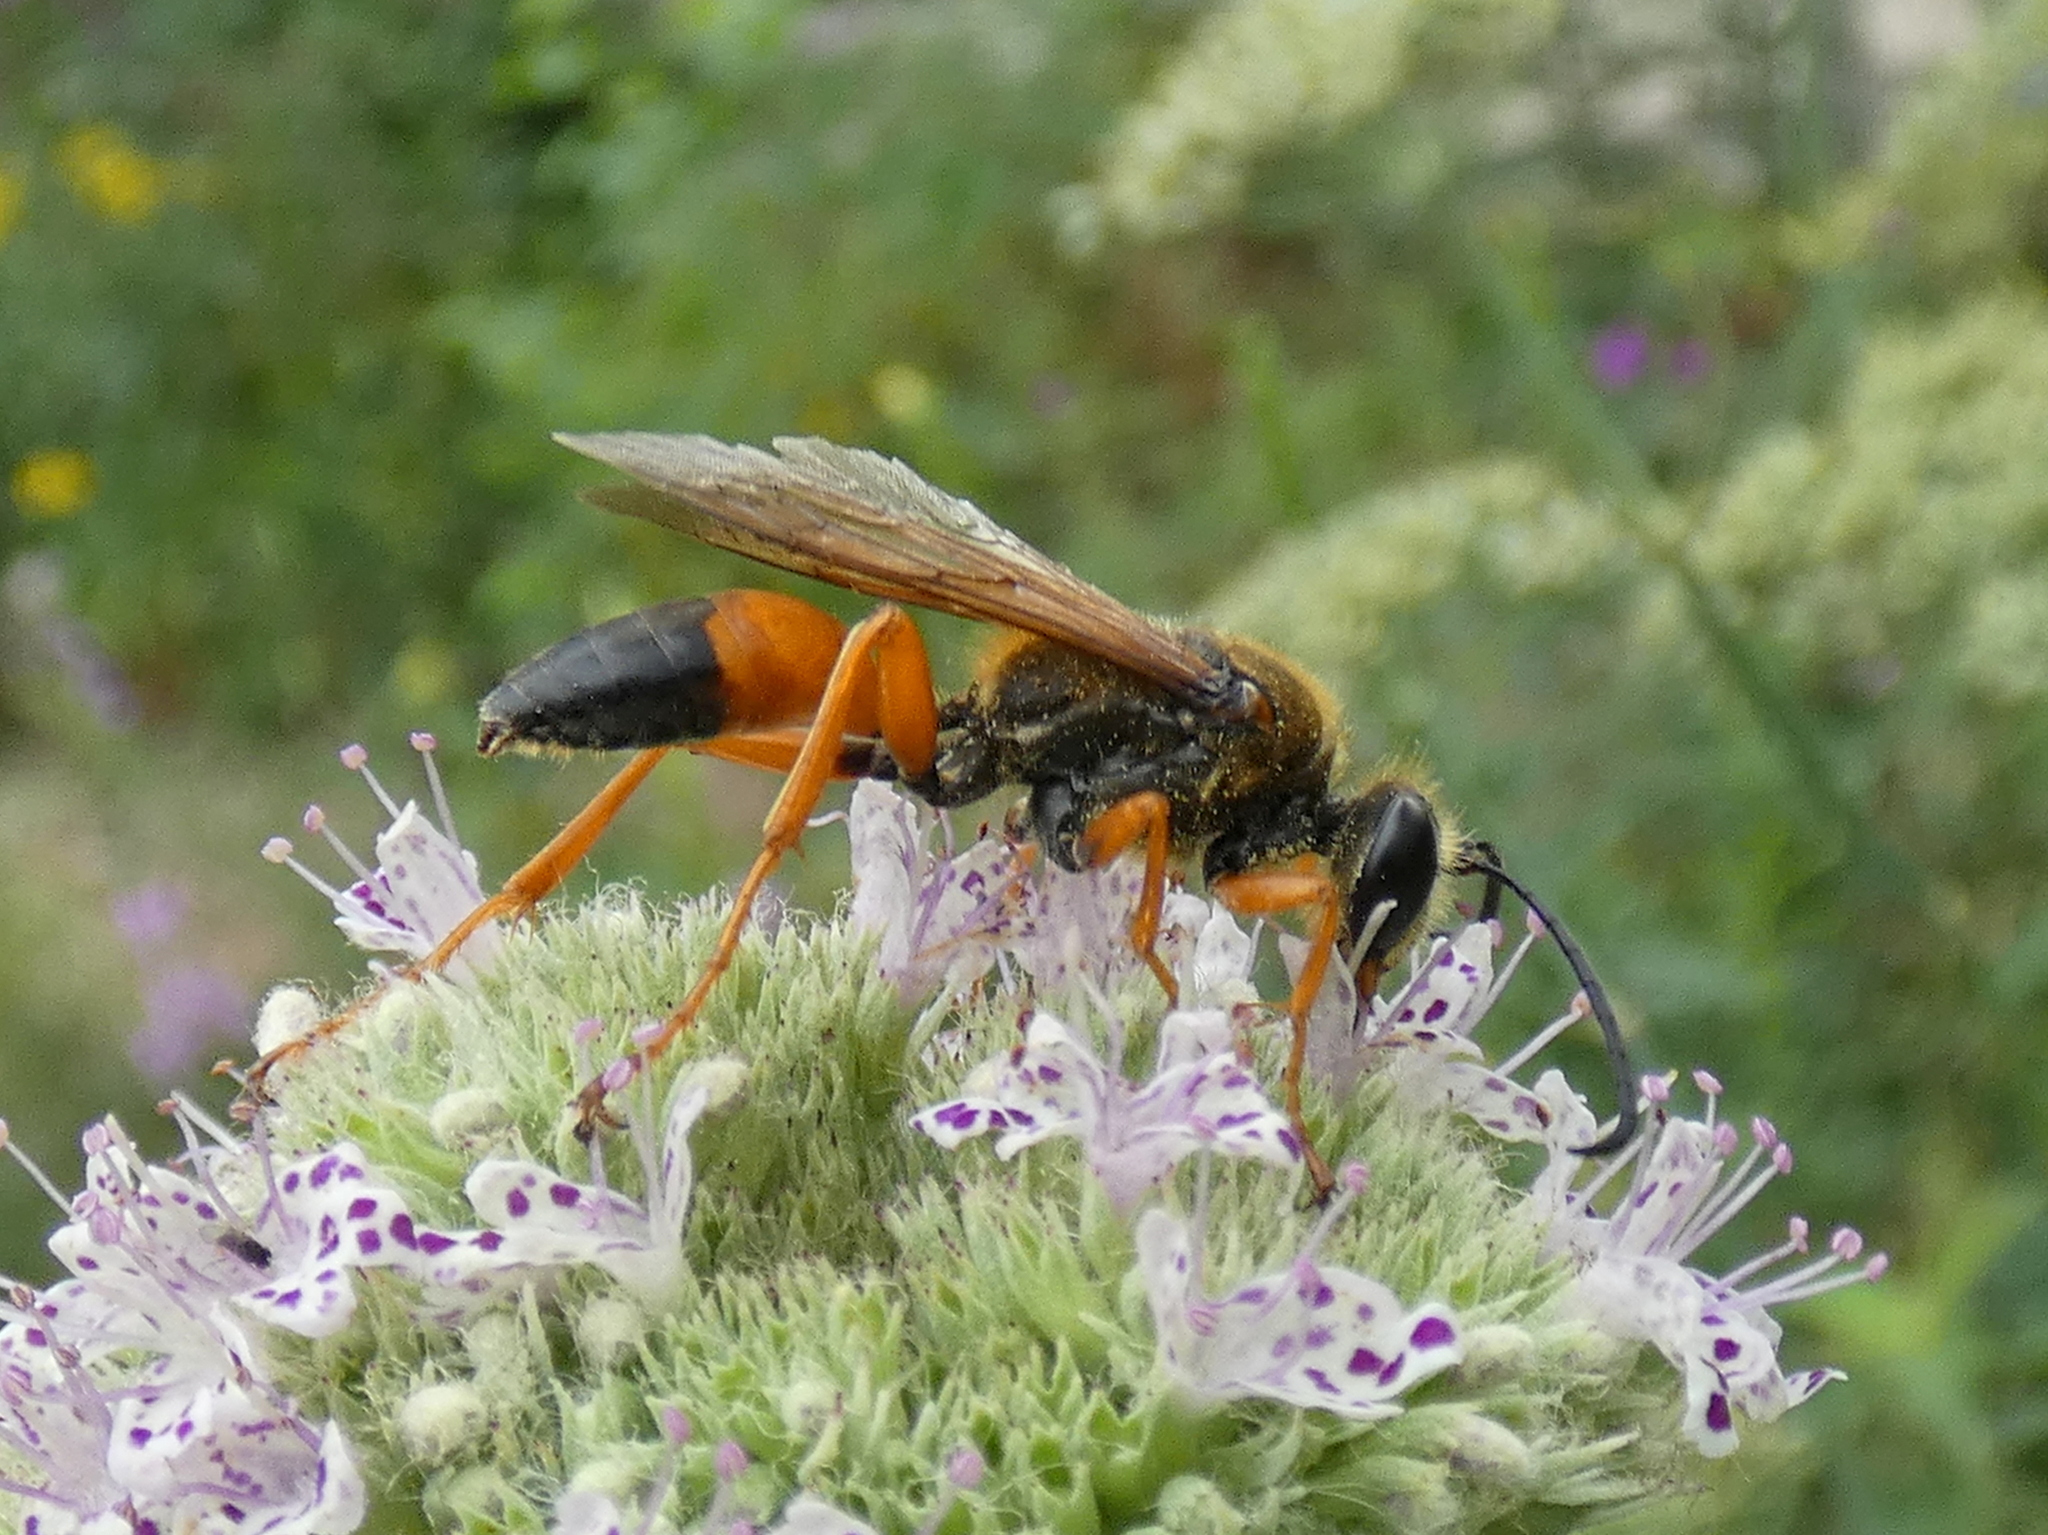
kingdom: Animalia
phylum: Arthropoda
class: Insecta
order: Hymenoptera
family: Sphecidae
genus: Sphex
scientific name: Sphex ichneumoneus
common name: Great golden digger wasp
